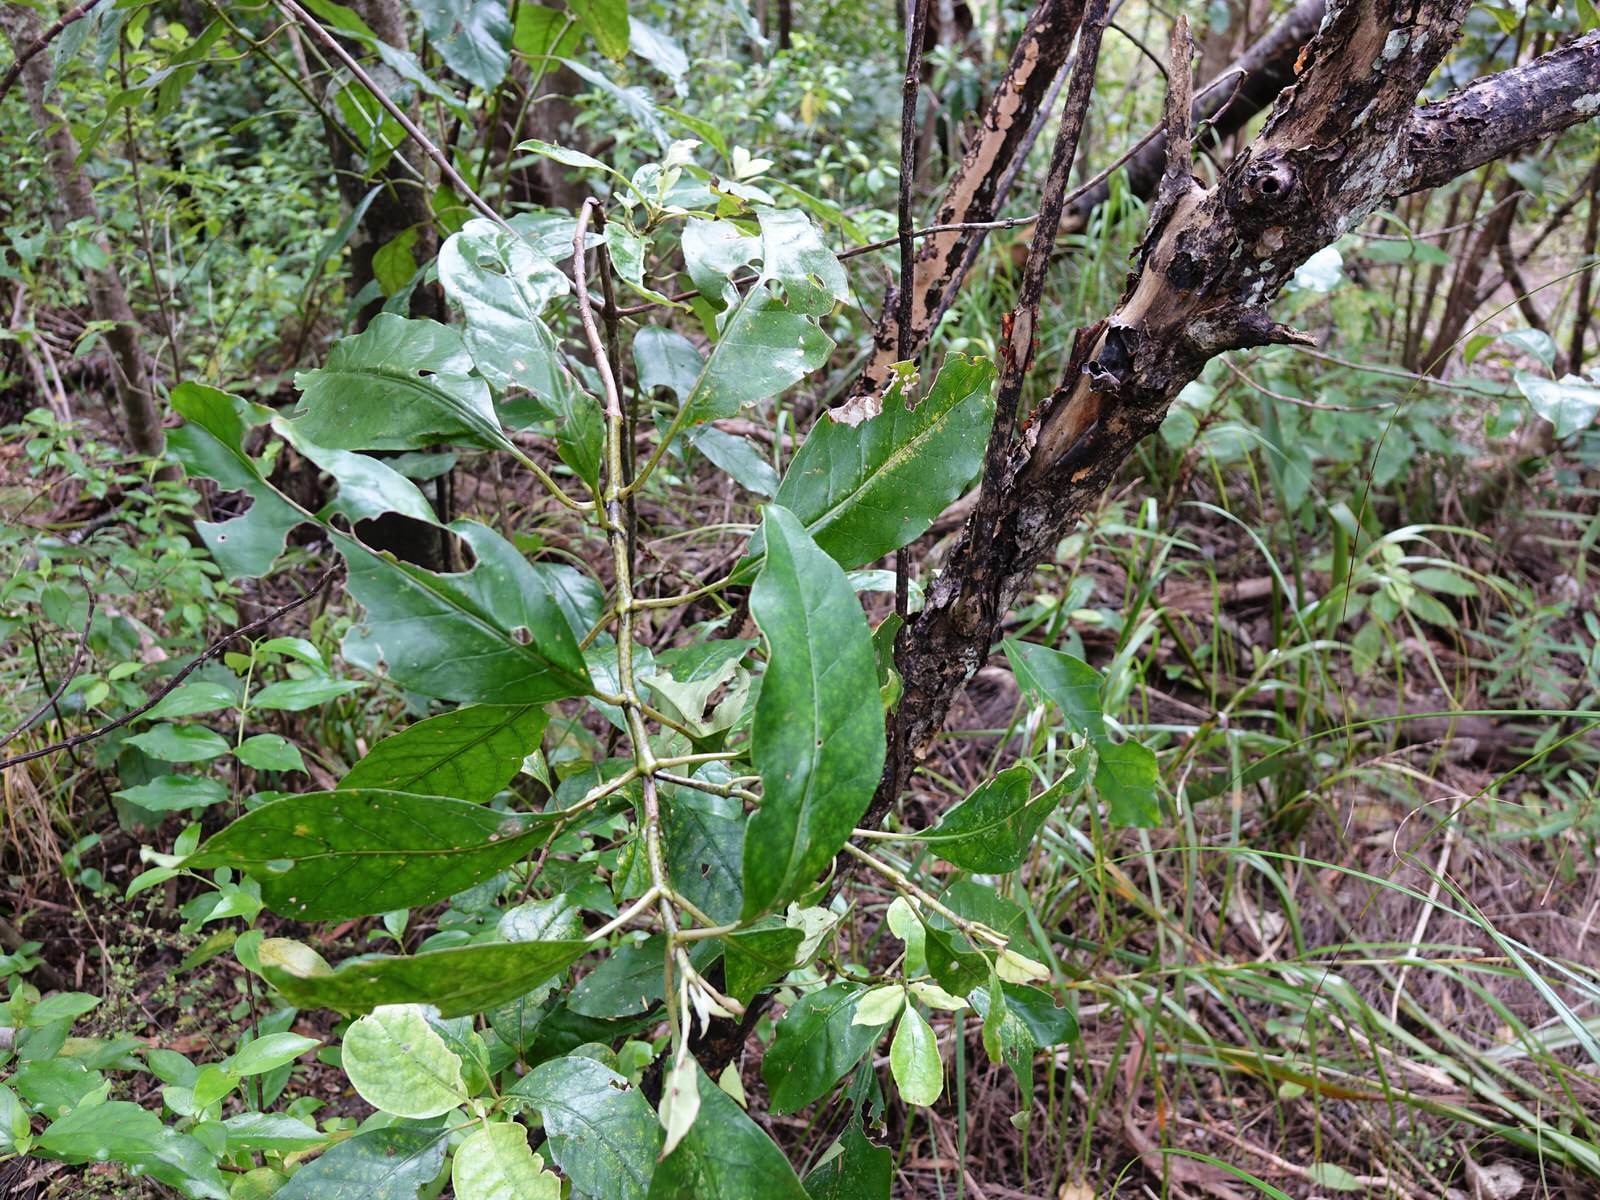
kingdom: Plantae
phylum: Tracheophyta
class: Magnoliopsida
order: Gentianales
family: Rubiaceae
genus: Coprosma
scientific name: Coprosma autumnalis
